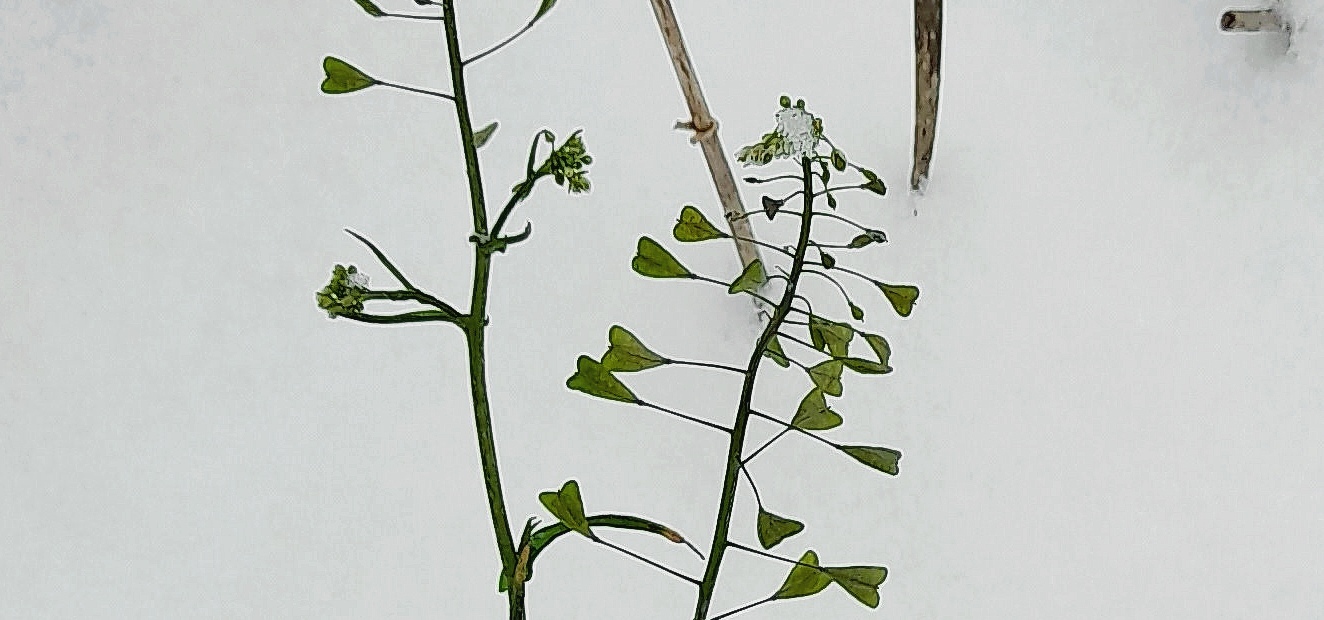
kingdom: Plantae
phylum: Tracheophyta
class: Magnoliopsida
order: Brassicales
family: Brassicaceae
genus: Capsella
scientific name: Capsella bursa-pastoris
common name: Shepherd's purse
